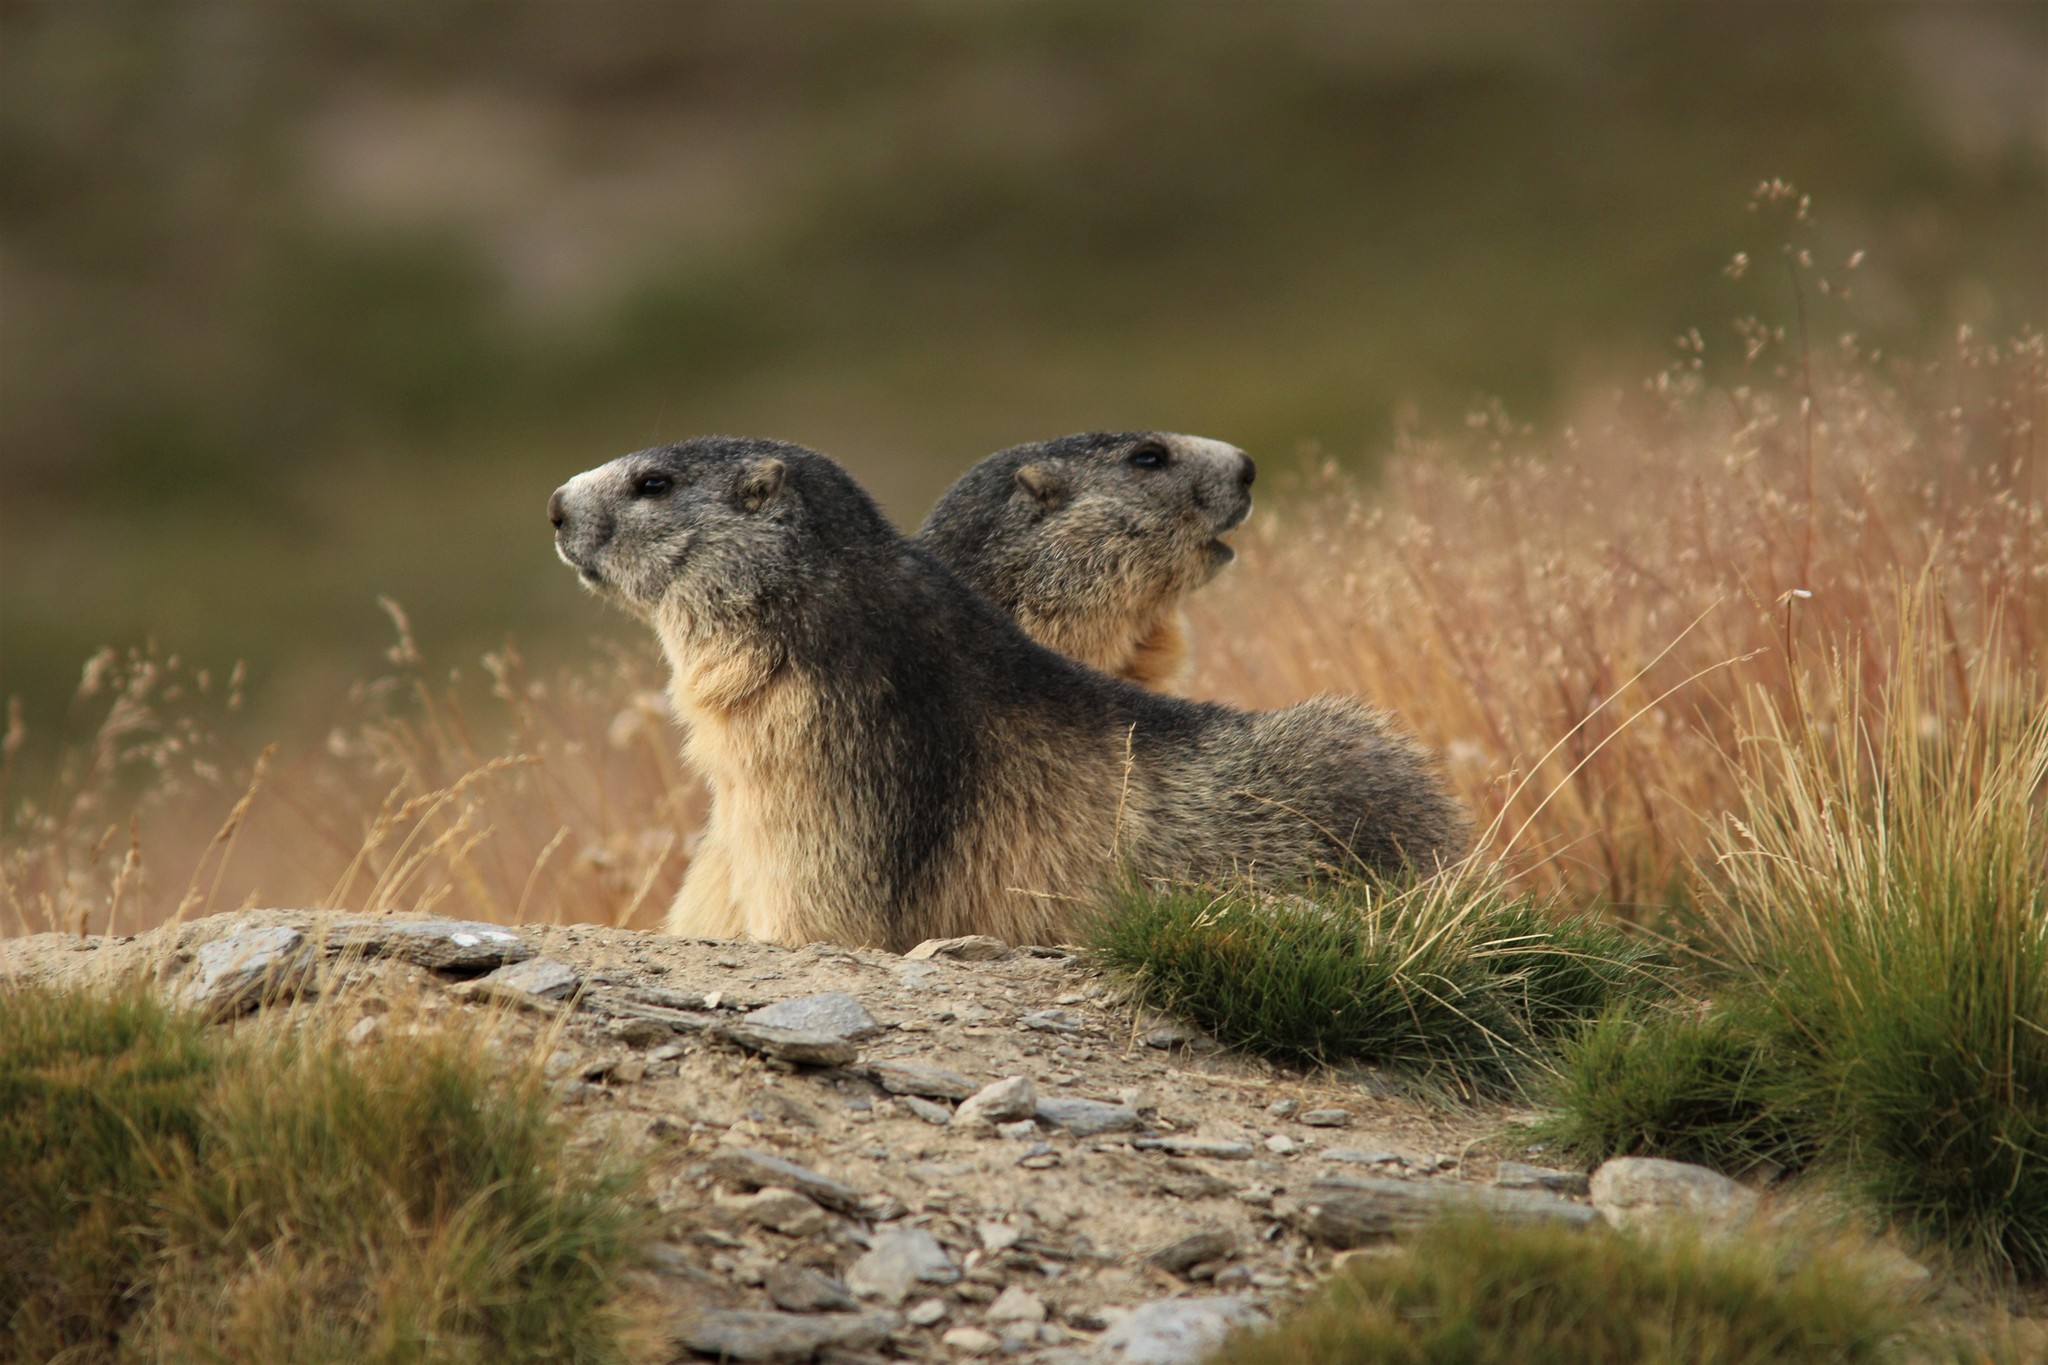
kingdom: Animalia
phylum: Chordata
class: Mammalia
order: Rodentia
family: Sciuridae
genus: Marmota
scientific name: Marmota marmota
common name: Alpine marmot
